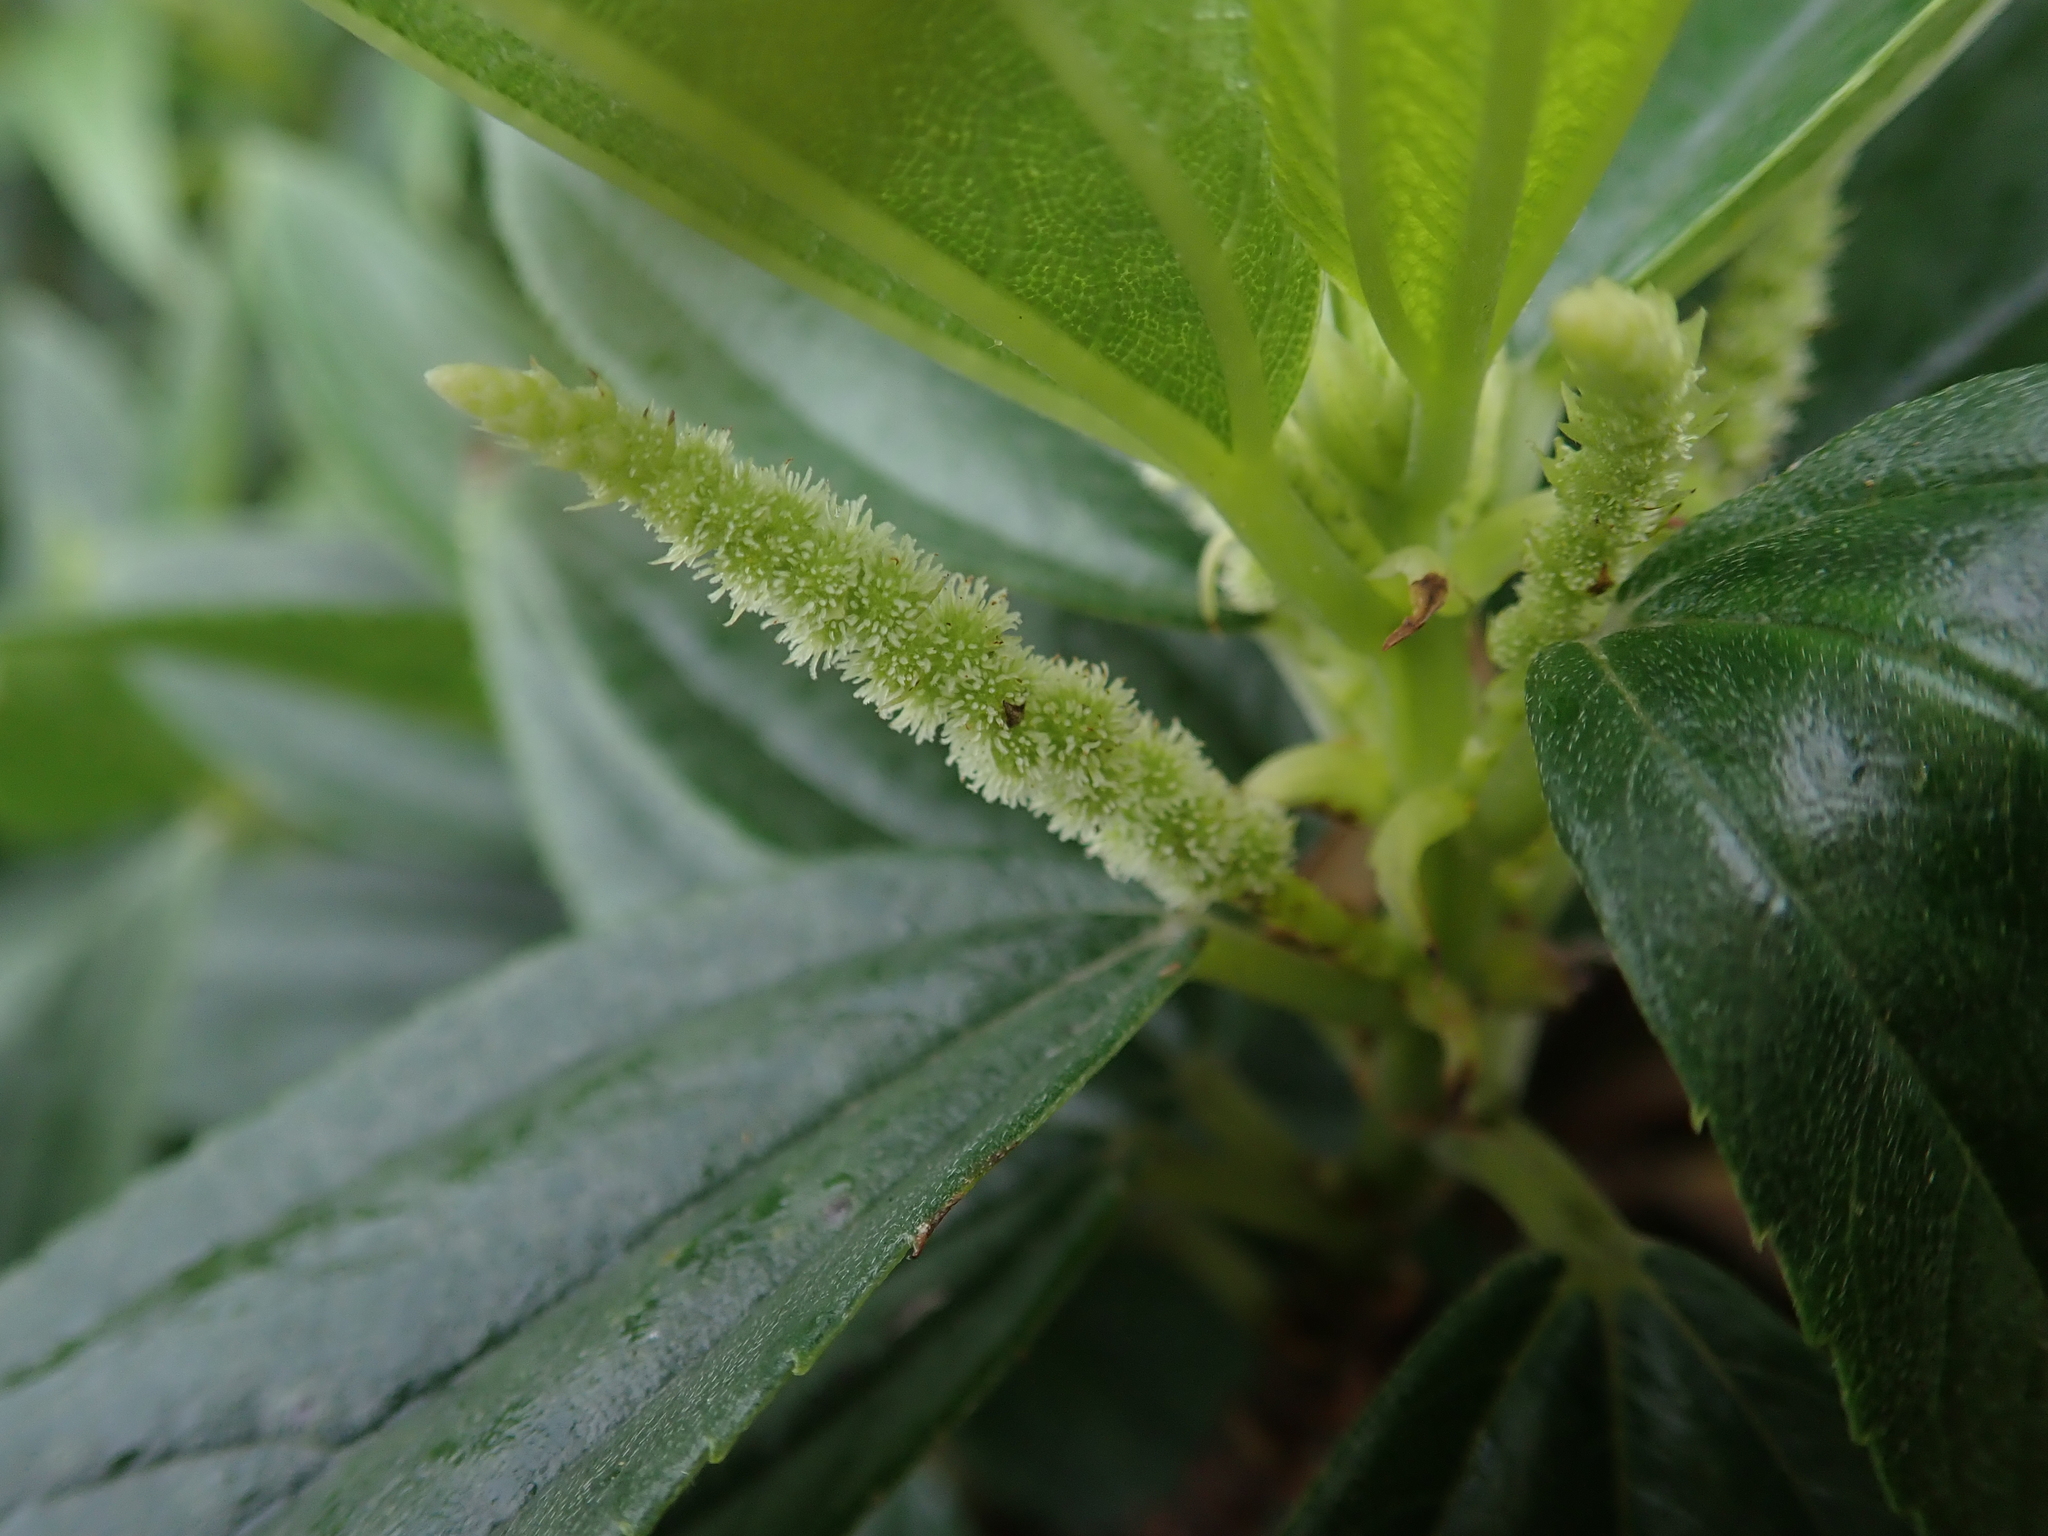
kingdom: Plantae
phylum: Tracheophyta
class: Magnoliopsida
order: Rosales
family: Urticaceae
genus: Boehmeria
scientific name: Boehmeria densiflora
